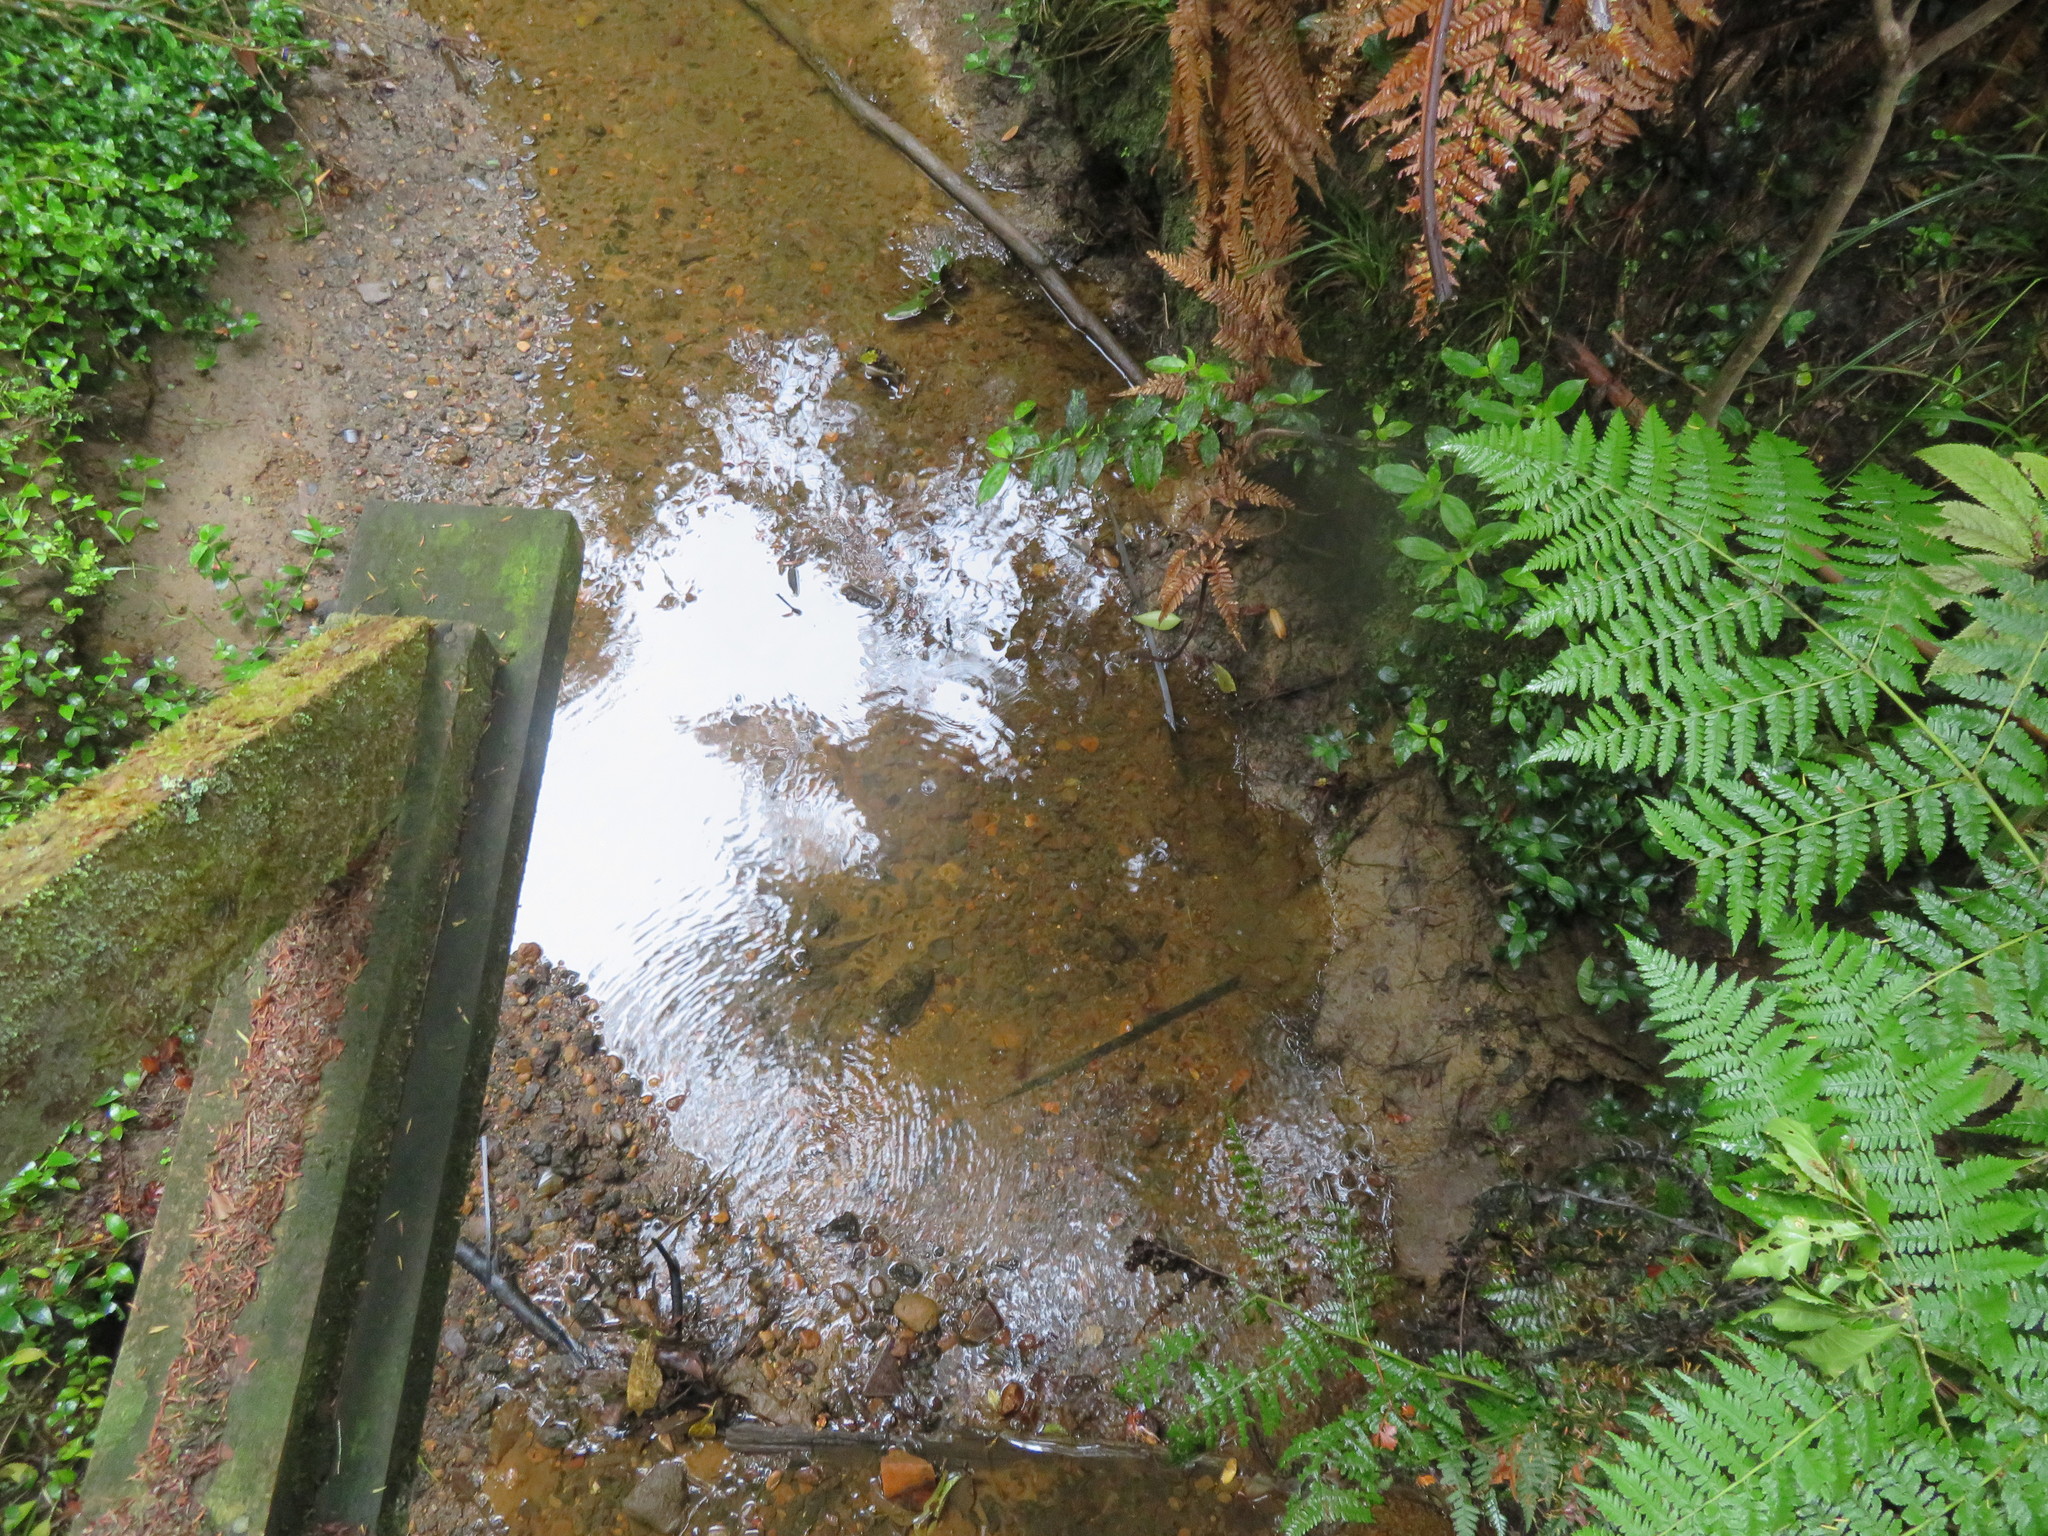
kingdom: Plantae
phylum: Tracheophyta
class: Liliopsida
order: Commelinales
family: Commelinaceae
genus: Tradescantia
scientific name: Tradescantia fluminensis
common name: Wandering-jew
